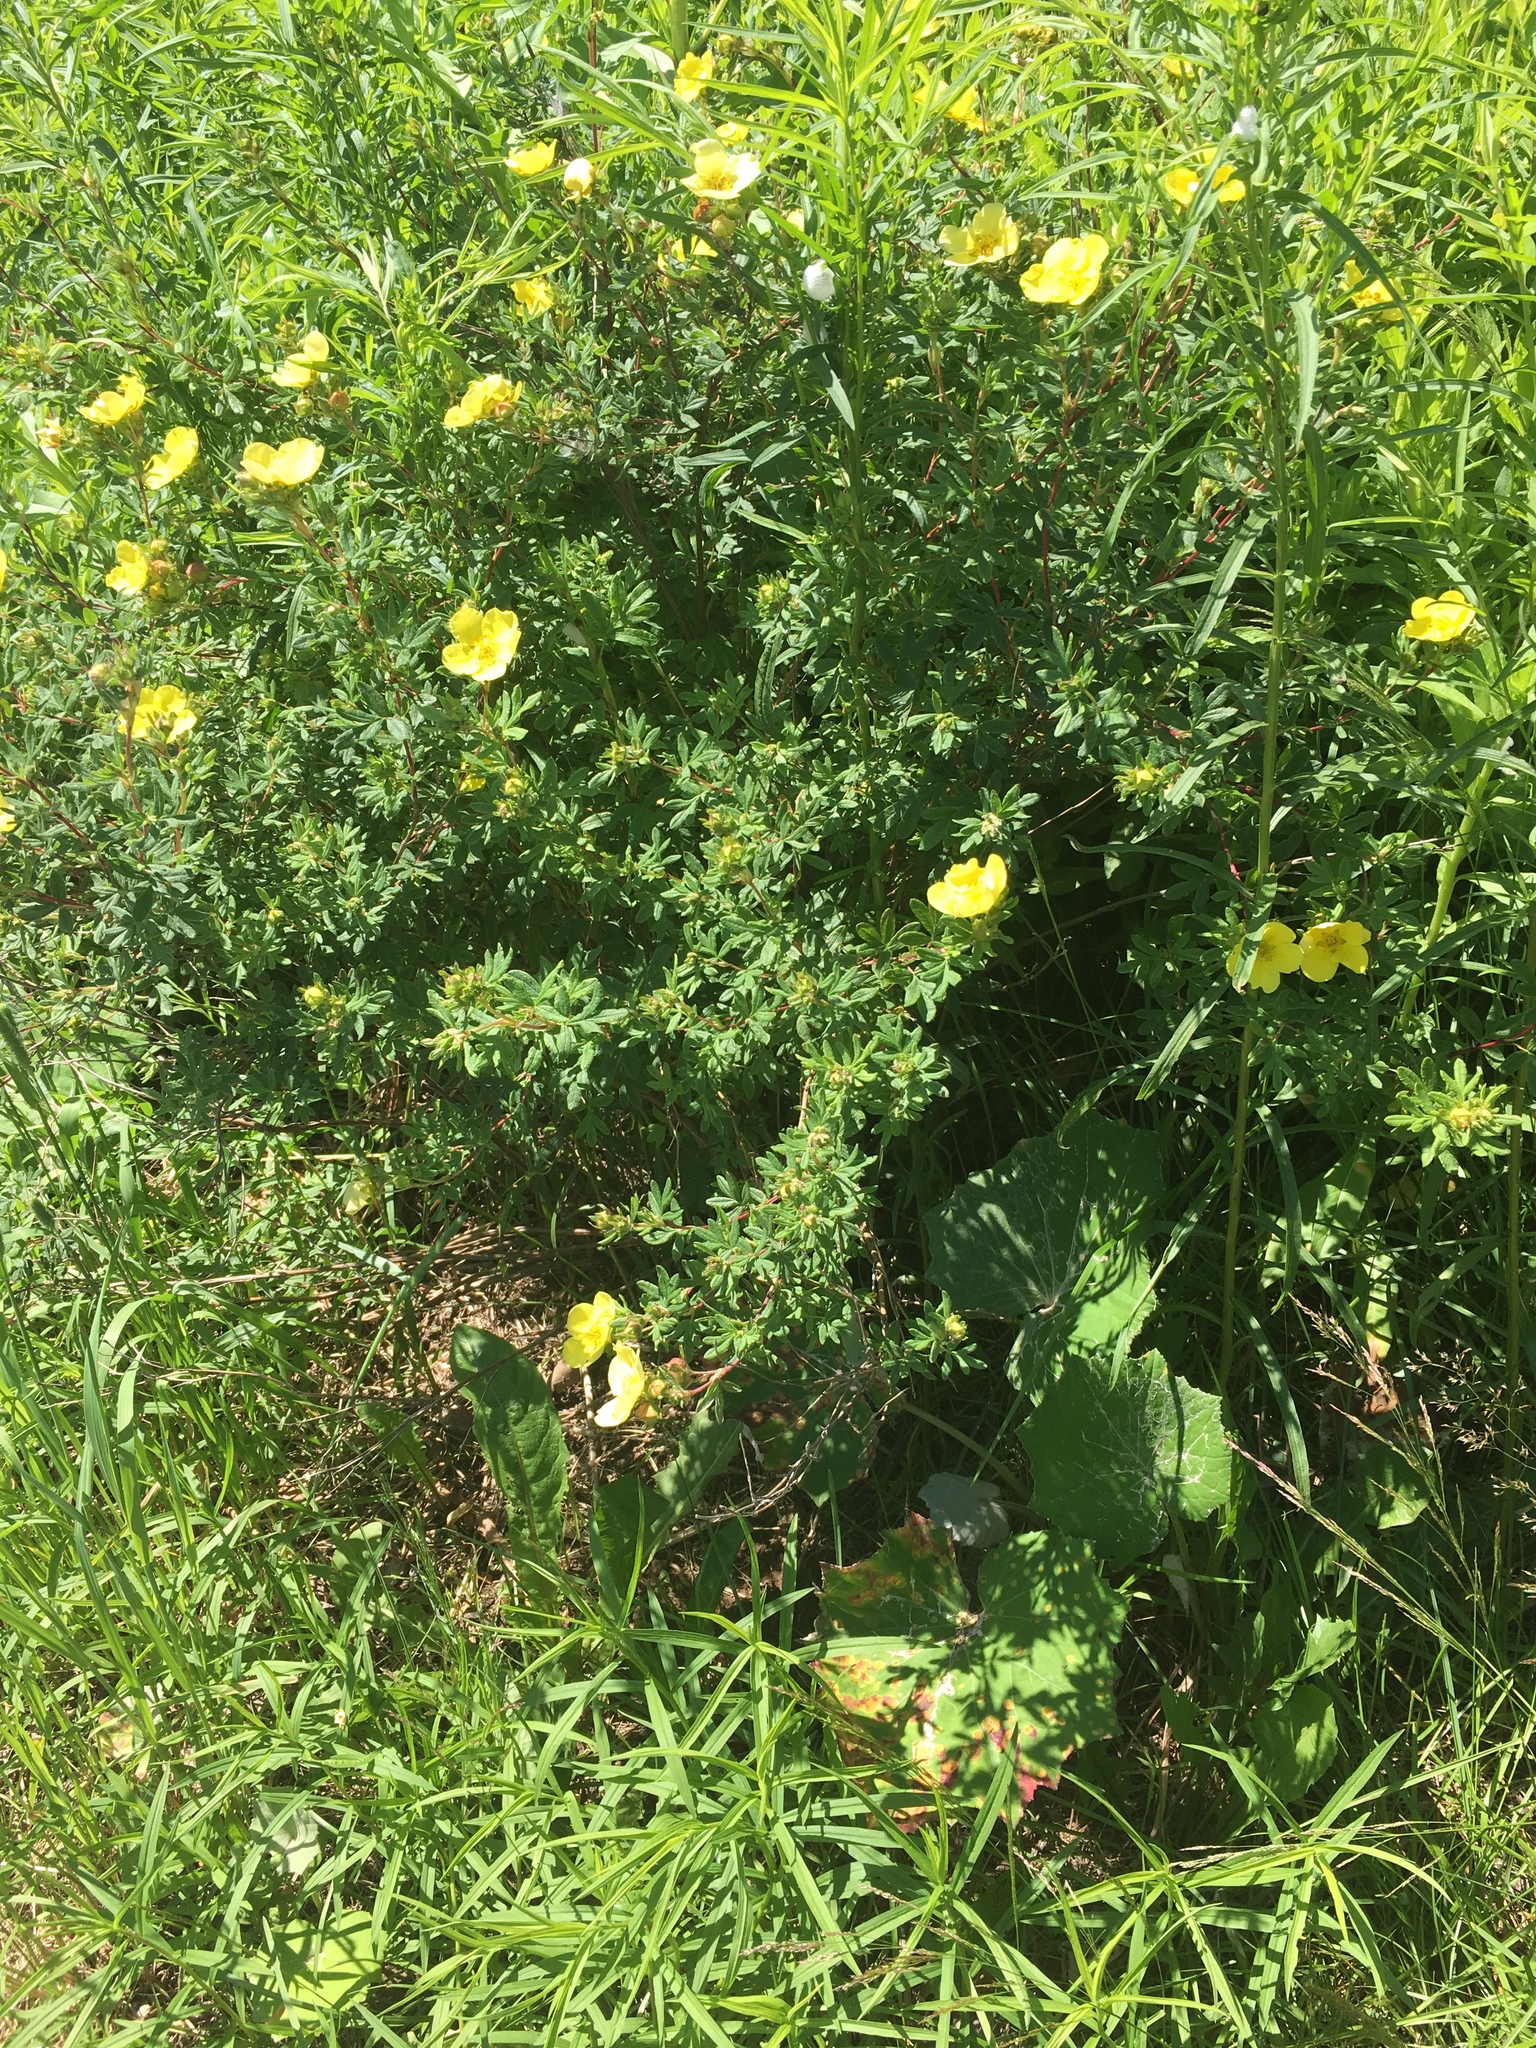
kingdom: Plantae
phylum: Tracheophyta
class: Magnoliopsida
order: Rosales
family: Rosaceae
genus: Dasiphora
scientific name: Dasiphora fruticosa
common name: Shrubby cinquefoil
